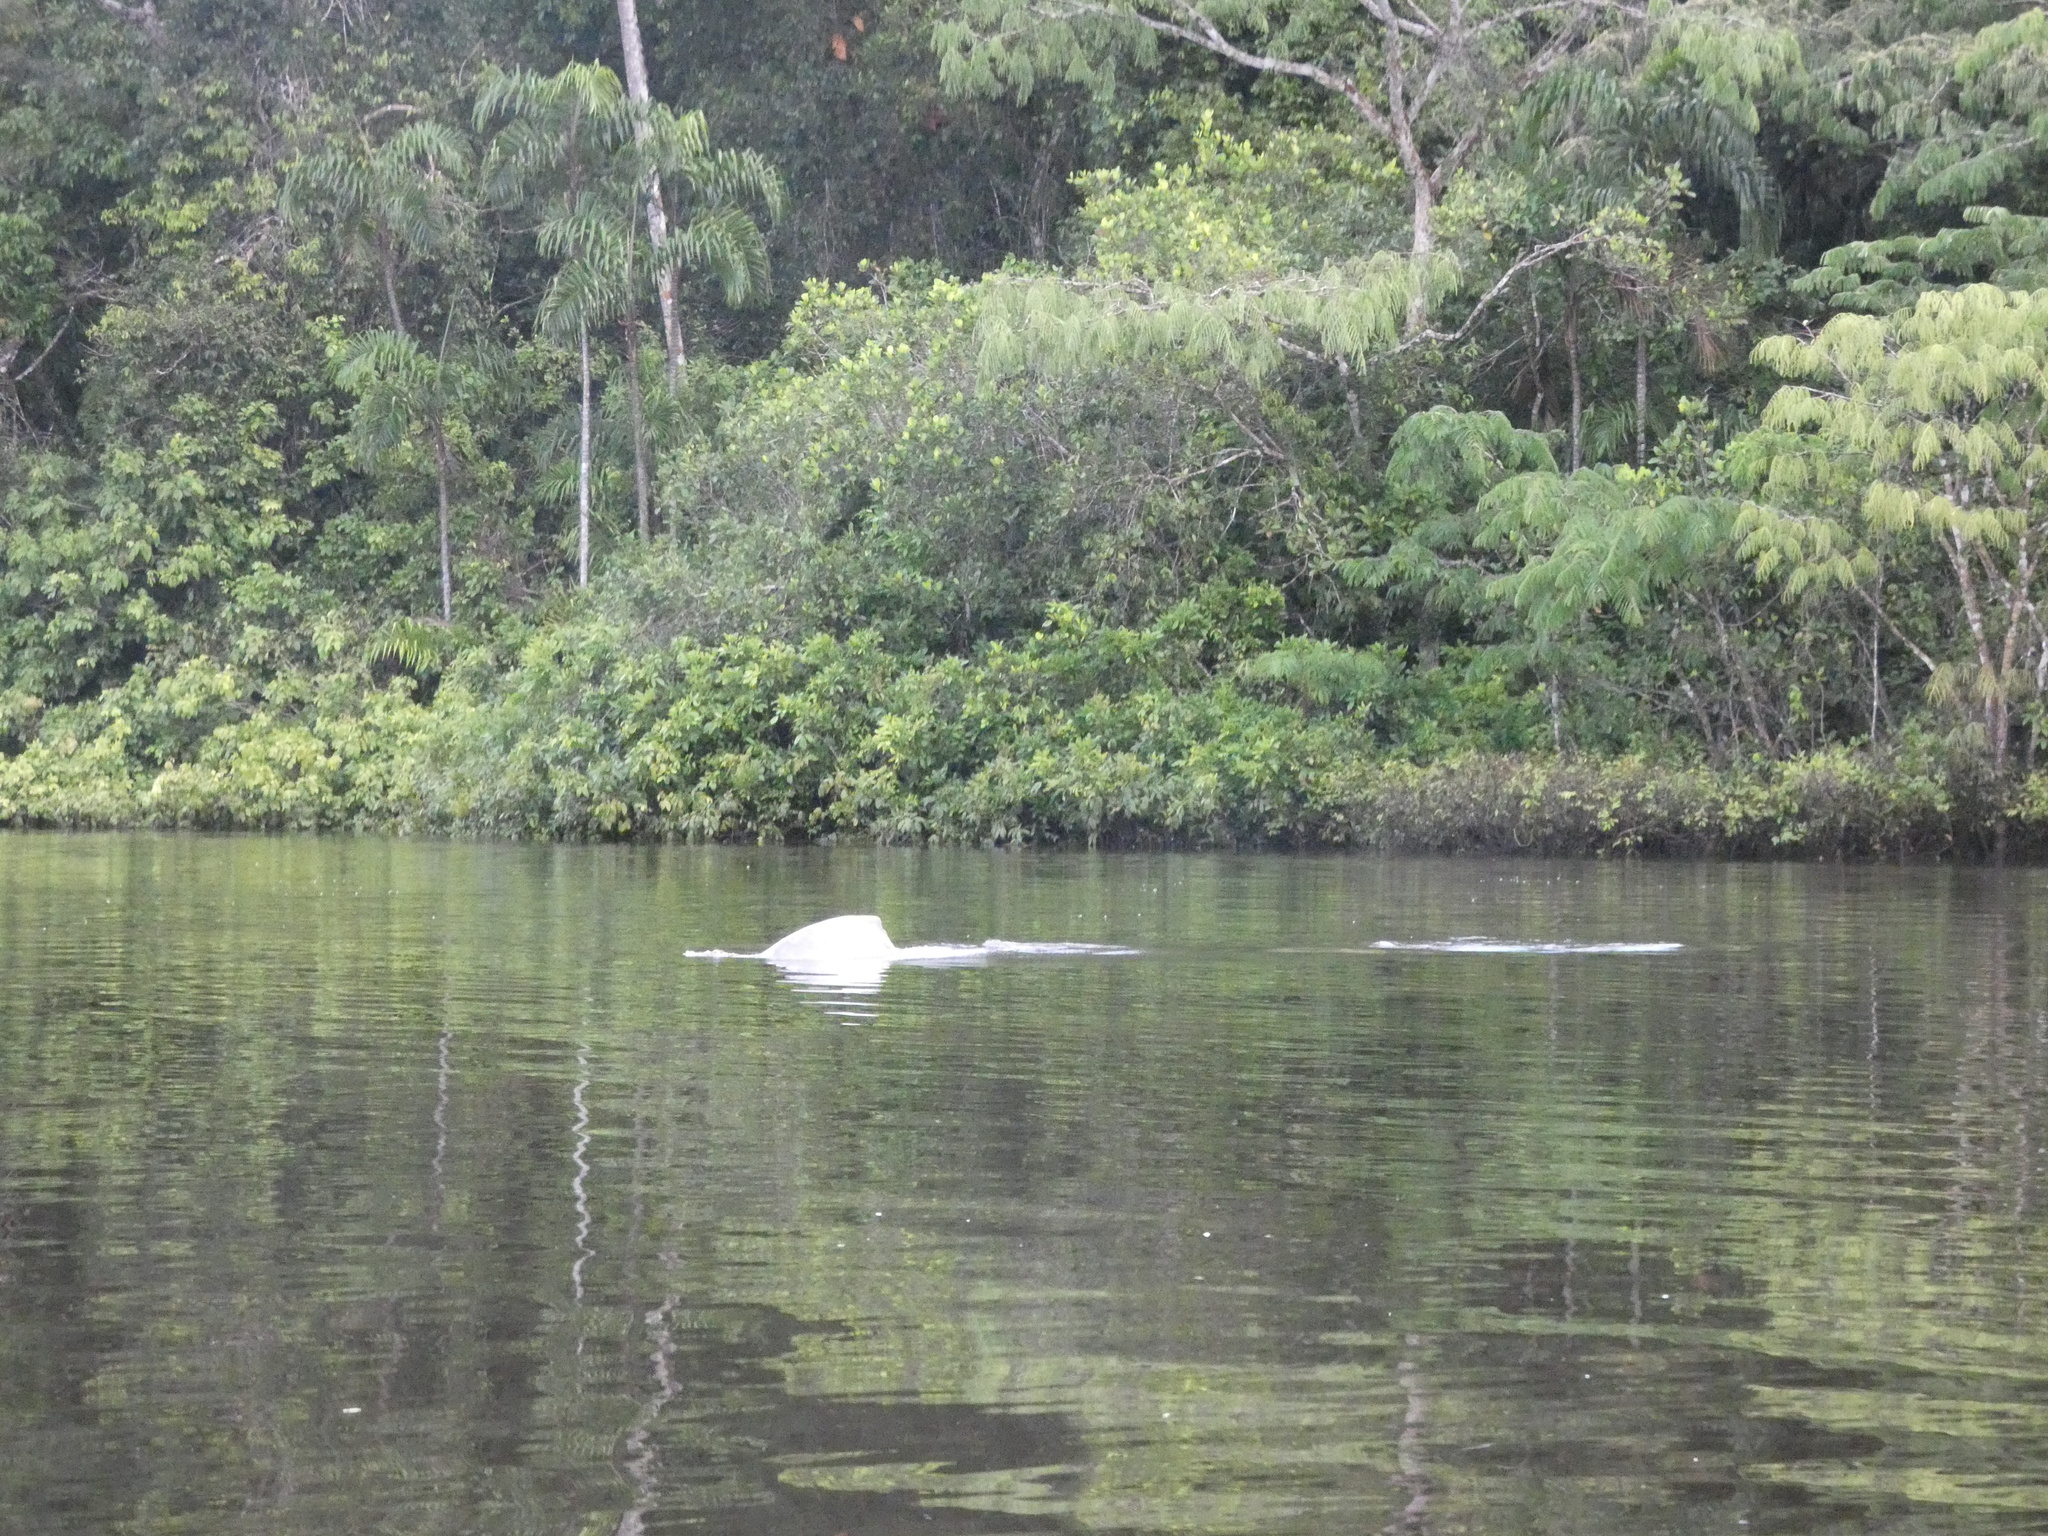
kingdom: Animalia
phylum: Chordata
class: Mammalia
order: Cetacea
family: Iniidae
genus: Inia
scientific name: Inia geoffrensis
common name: Amazon river dolphin
